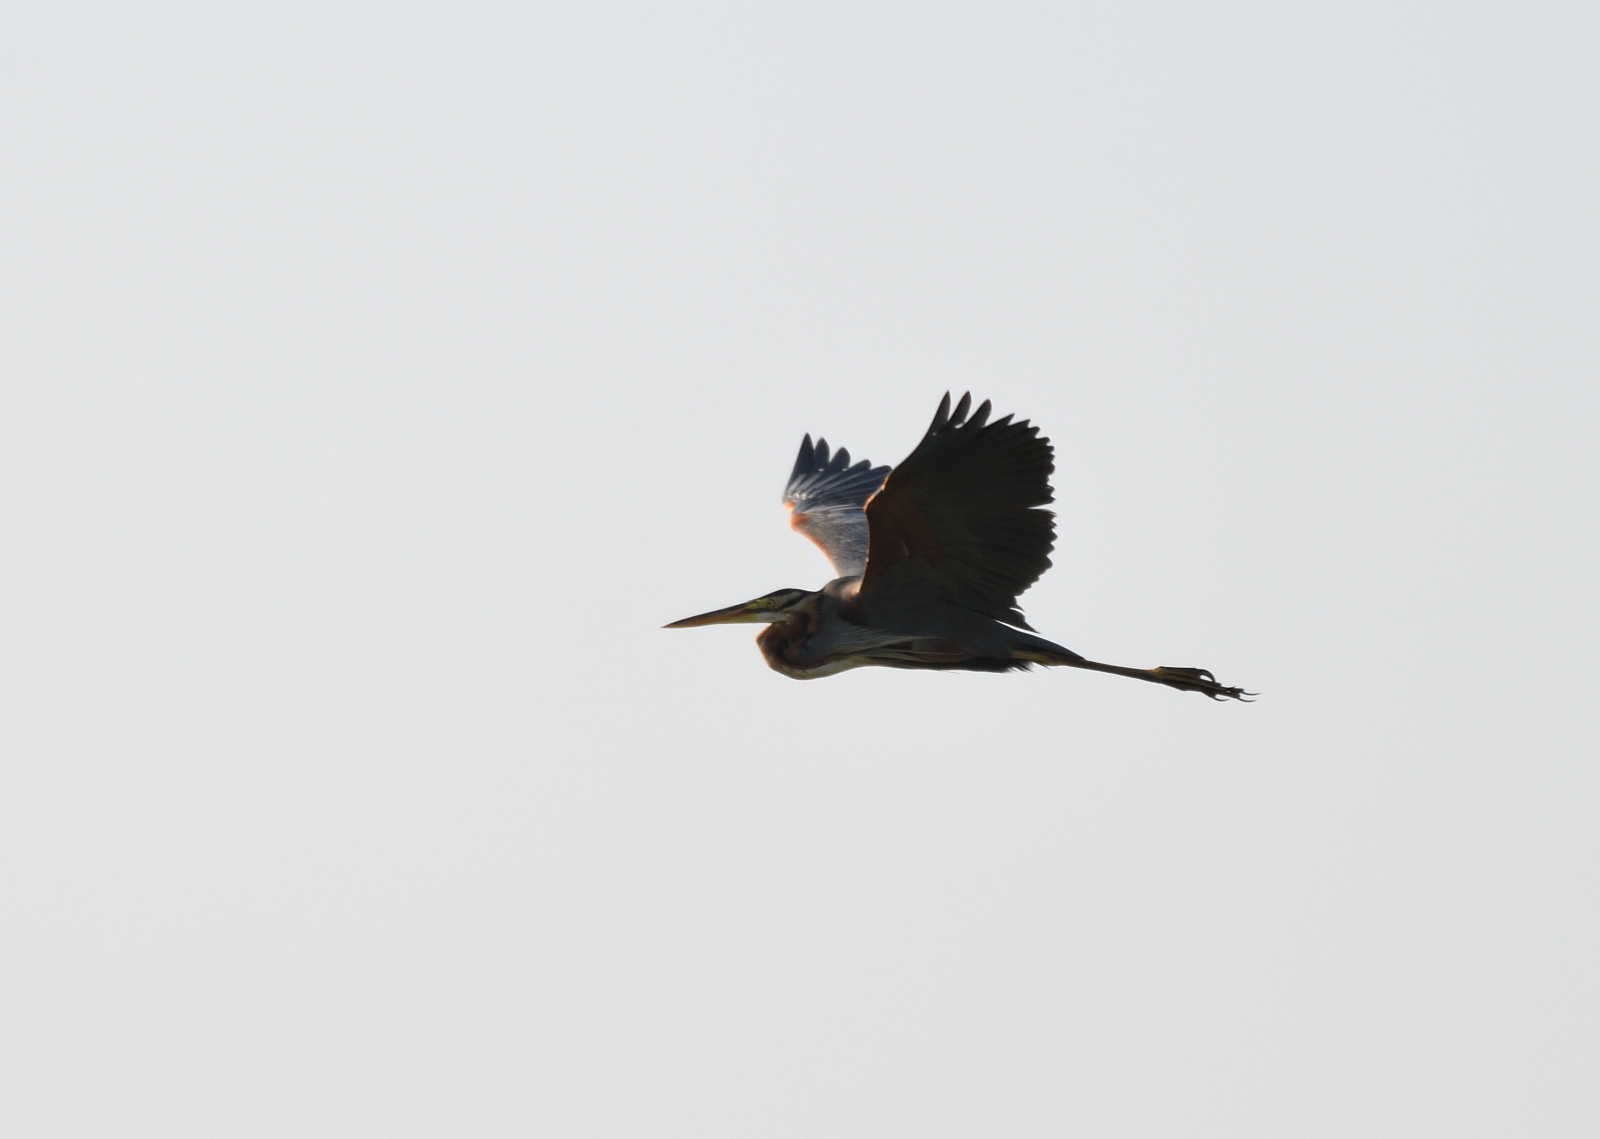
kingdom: Animalia
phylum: Chordata
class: Aves
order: Pelecaniformes
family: Ardeidae
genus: Ardea
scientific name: Ardea purpurea
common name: Purple heron
